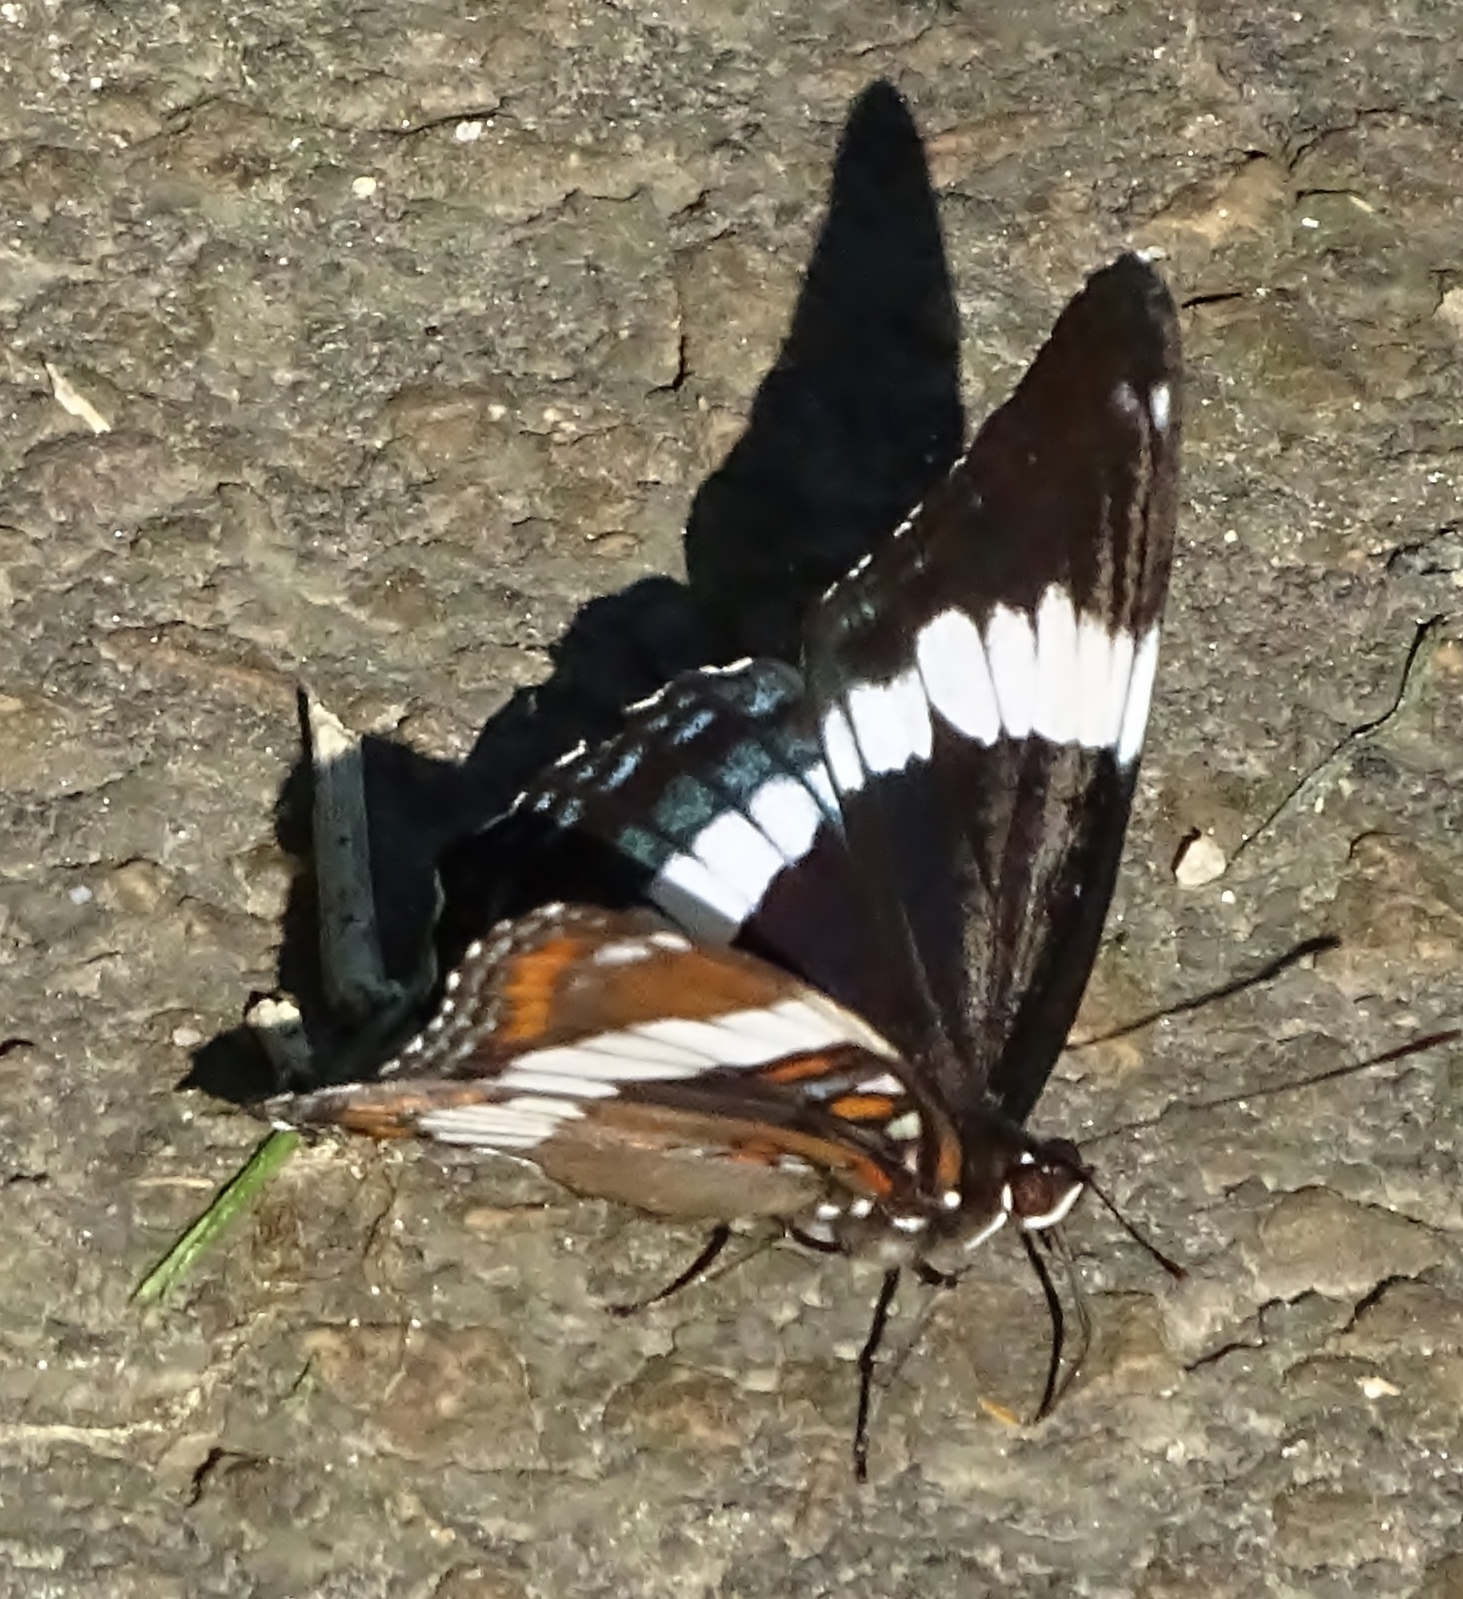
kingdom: Animalia
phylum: Arthropoda
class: Insecta
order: Lepidoptera
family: Nymphalidae
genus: Limenitis
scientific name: Limenitis arthemis
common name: Red-spotted admiral
